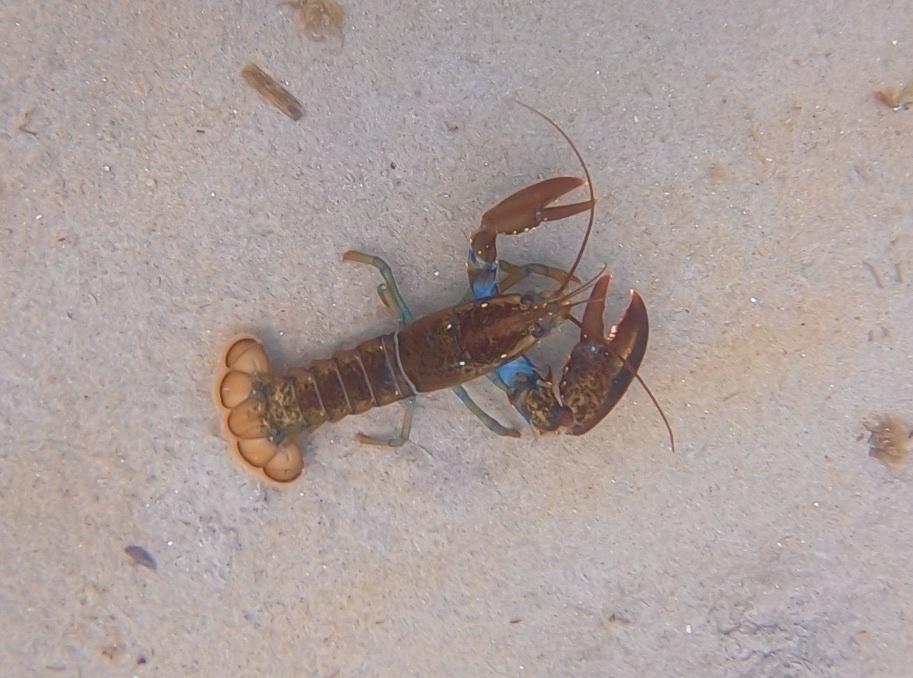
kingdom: Animalia
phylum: Arthropoda
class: Malacostraca
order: Decapoda
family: Nephropidae
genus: Homarus
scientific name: Homarus americanus
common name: American lobster
